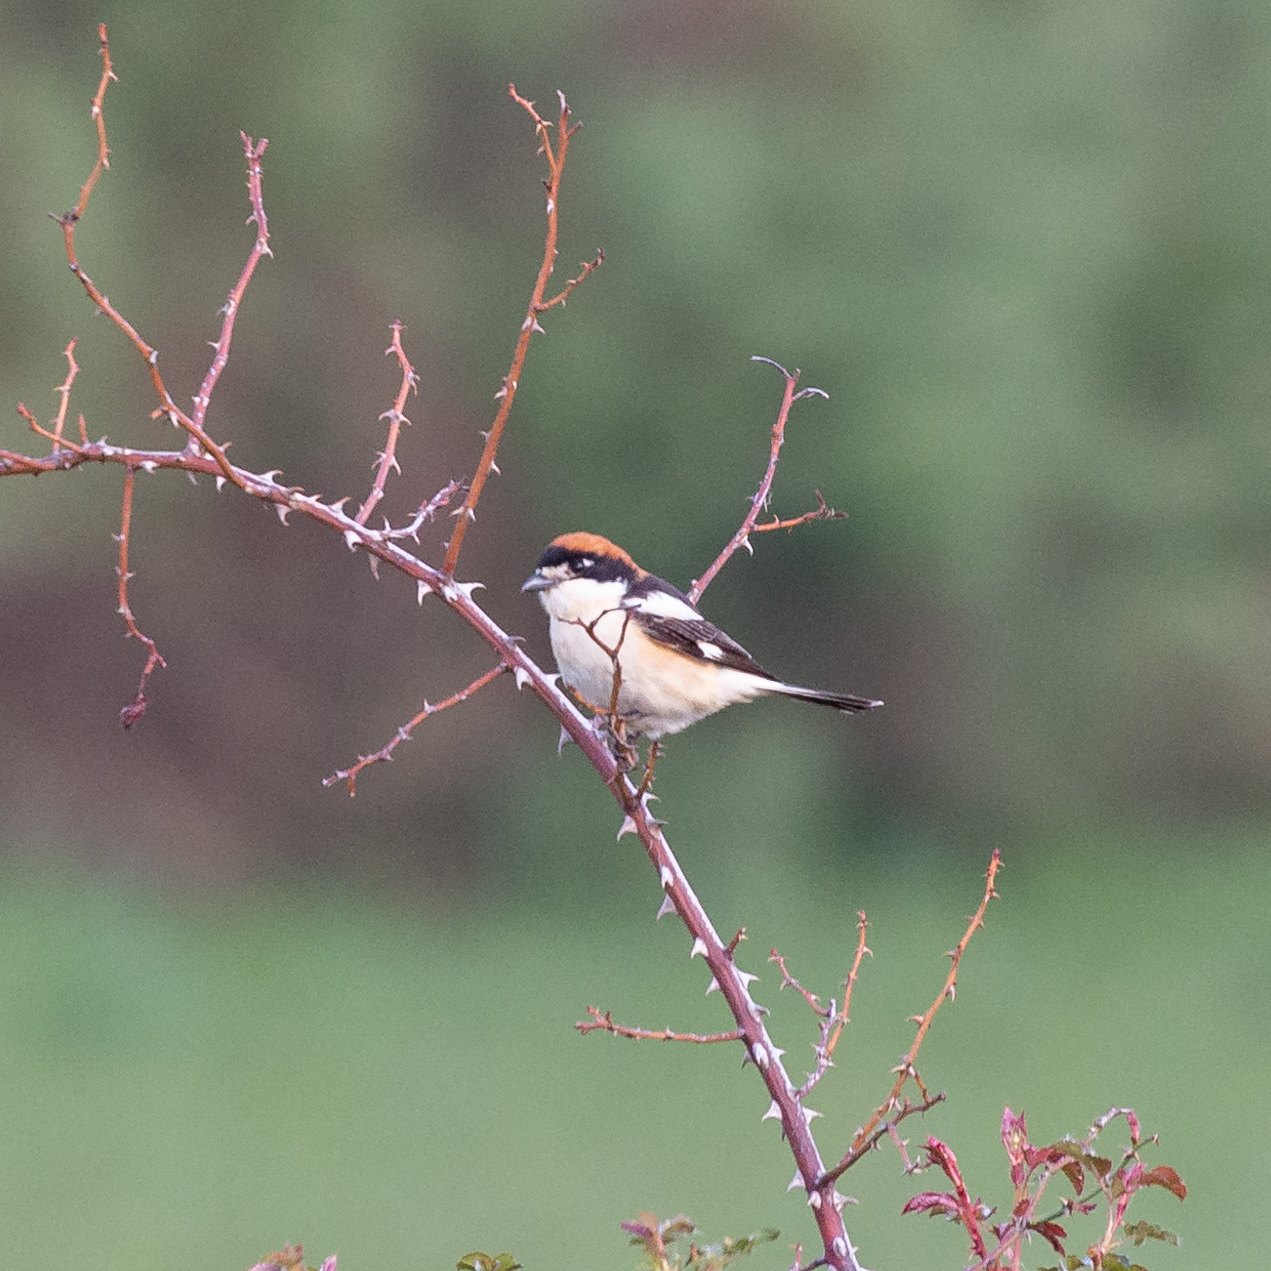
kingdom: Animalia
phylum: Chordata
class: Aves
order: Passeriformes
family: Laniidae
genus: Lanius
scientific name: Lanius senator
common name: Woodchat shrike
